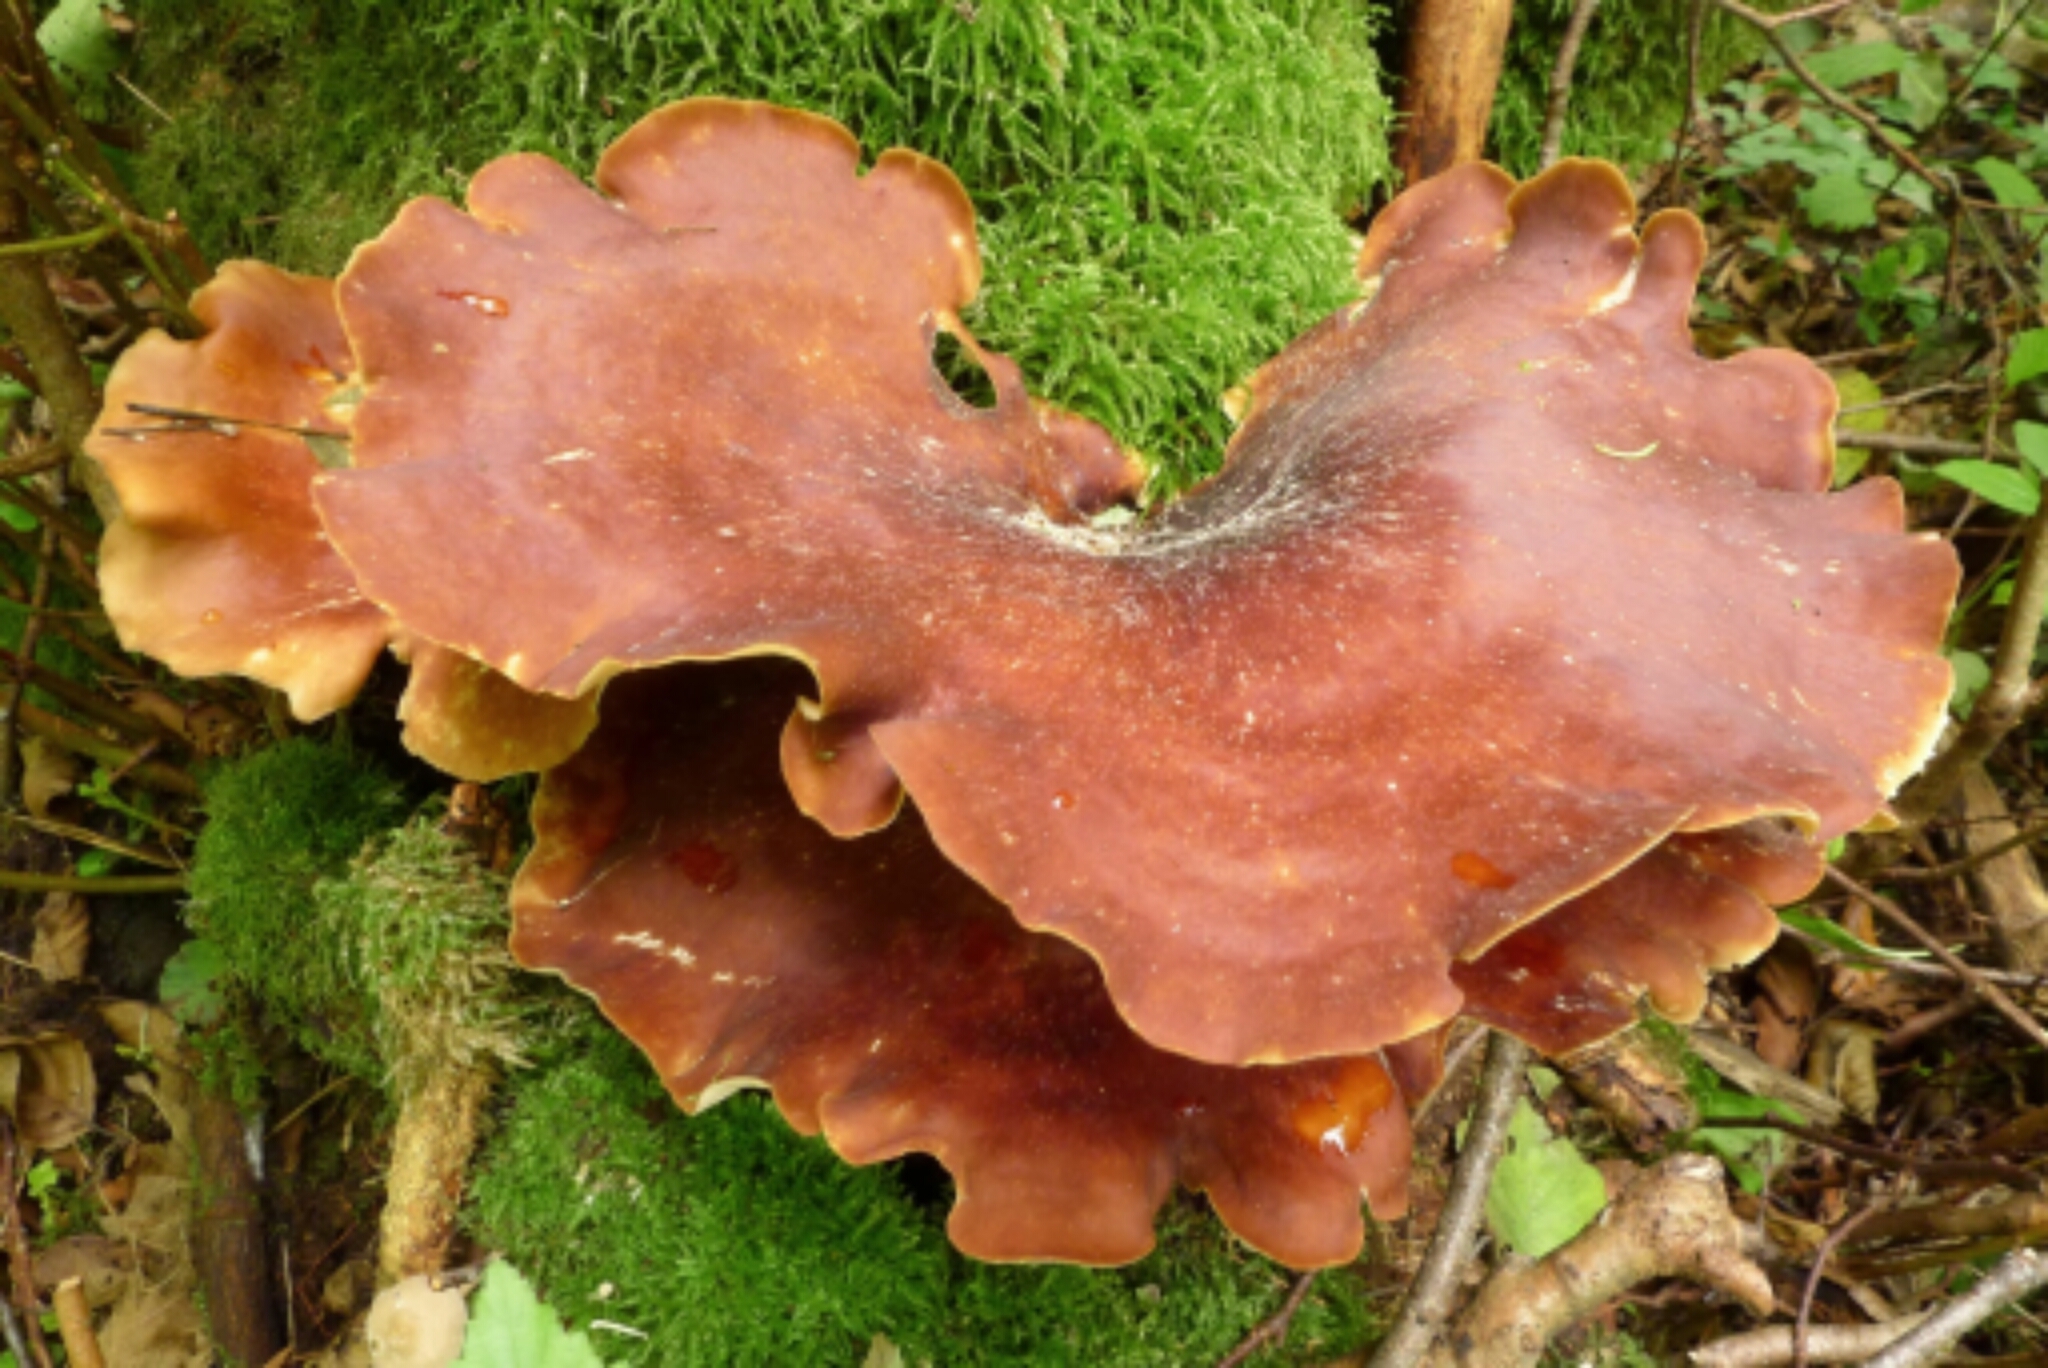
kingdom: Fungi
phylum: Basidiomycota
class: Agaricomycetes
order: Polyporales
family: Polyporaceae
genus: Picipes
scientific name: Picipes badius
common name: Bay polypore
